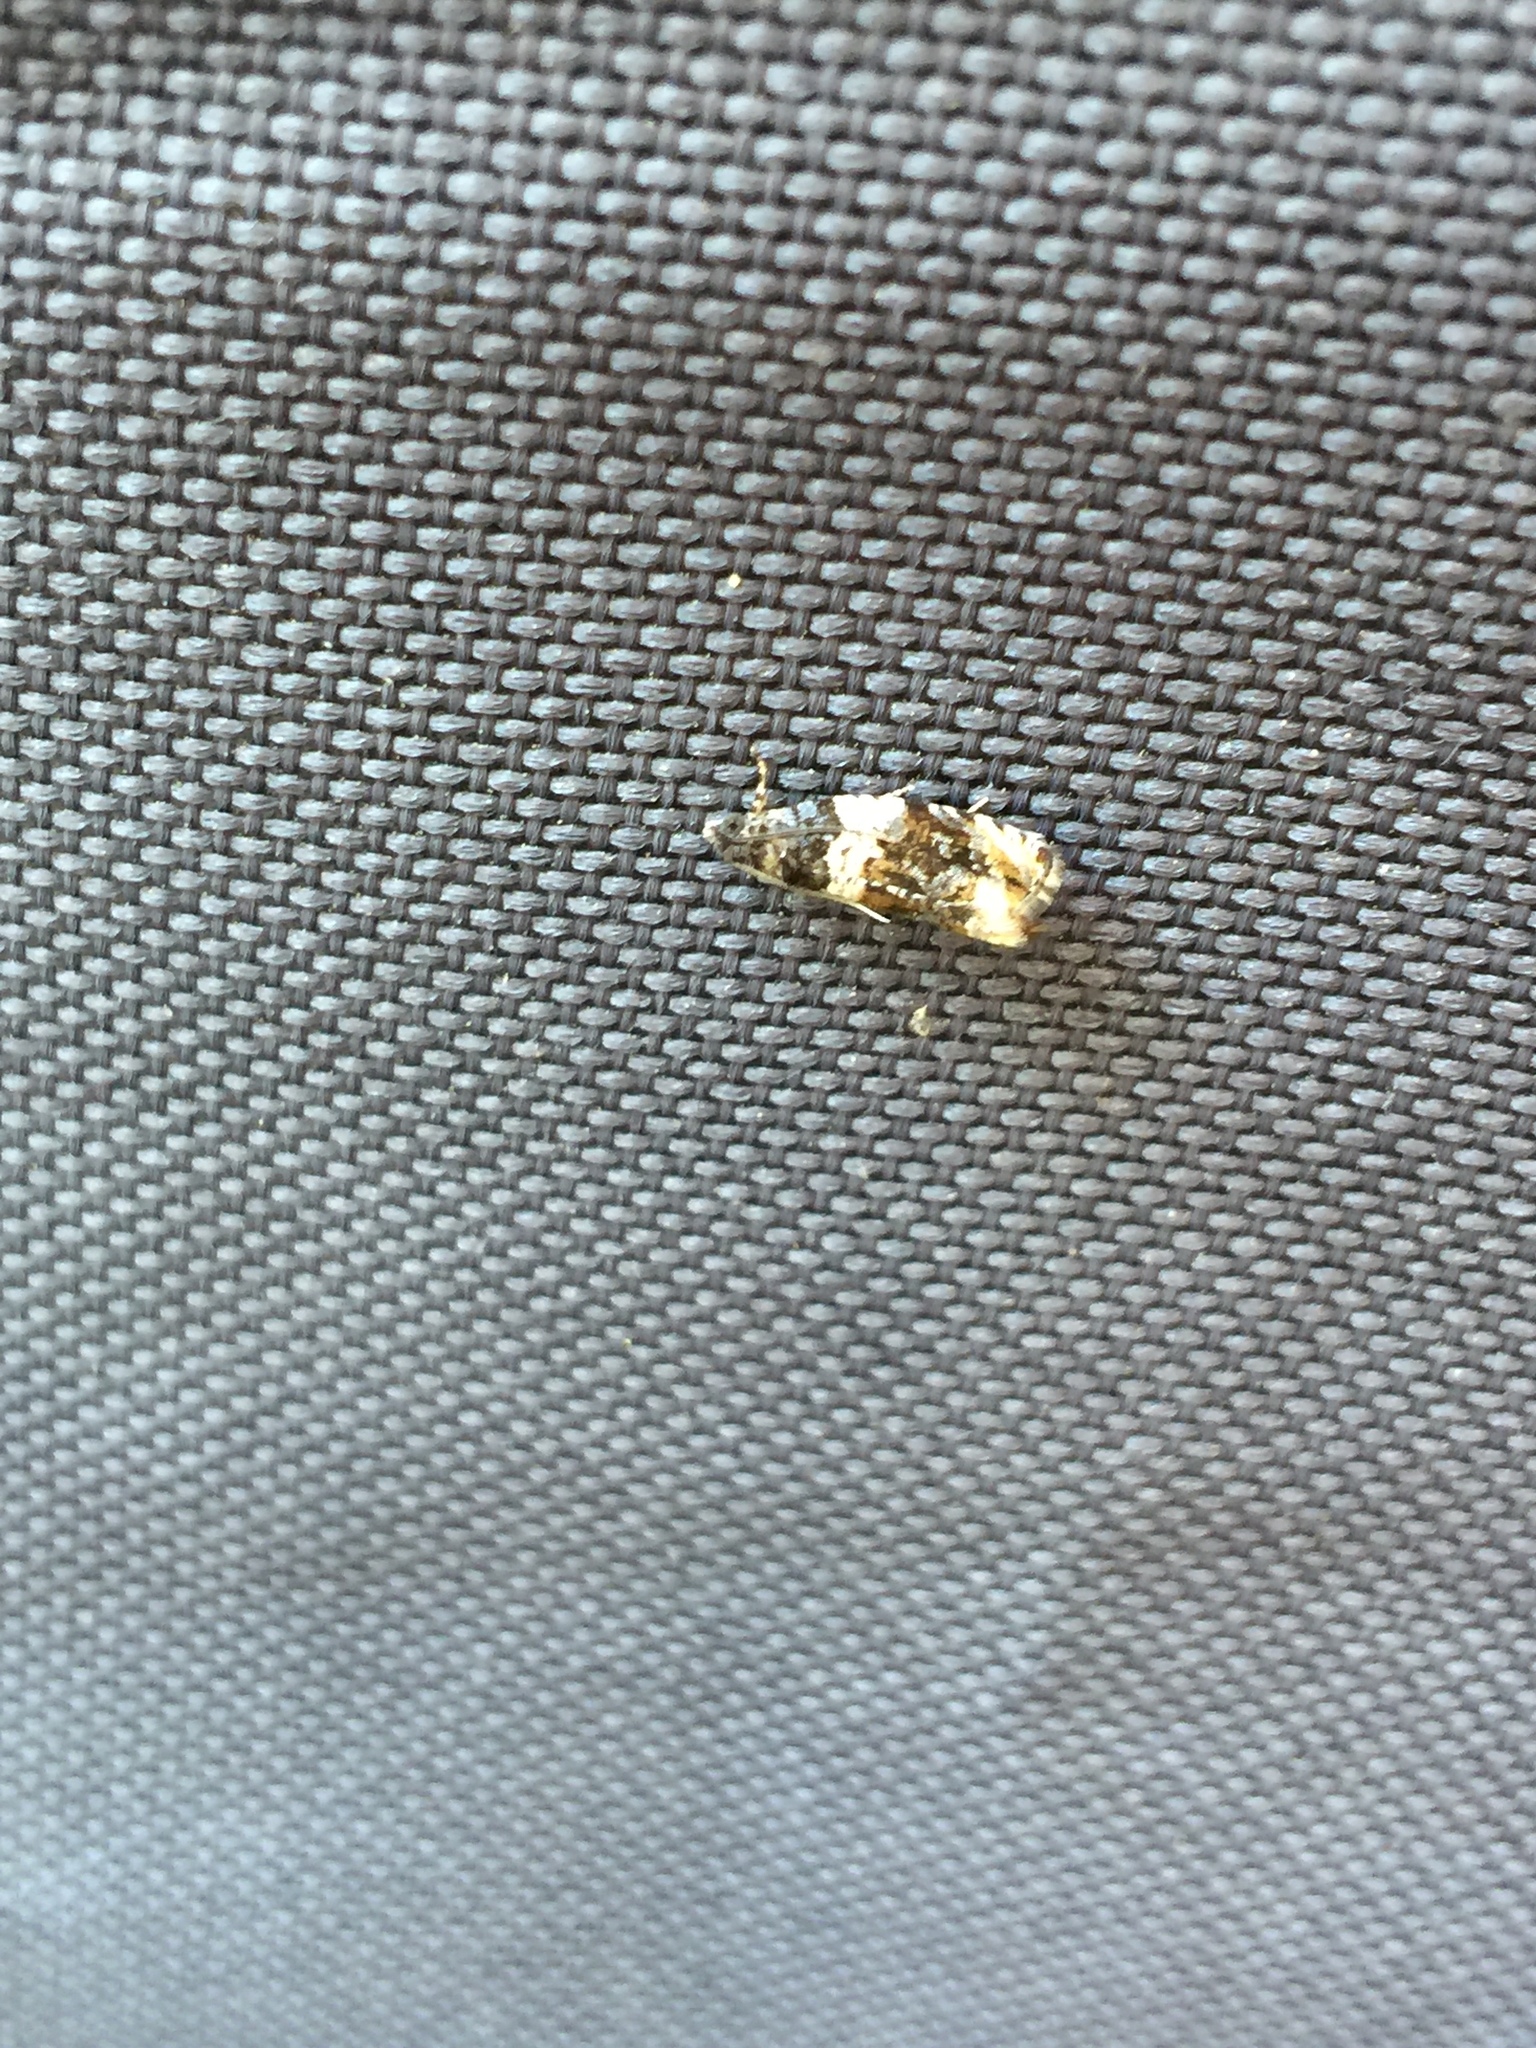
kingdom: Animalia
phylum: Arthropoda
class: Insecta
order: Lepidoptera
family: Tortricidae
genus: Olethreutes
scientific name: Olethreutes fasciatana
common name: Banded olethreutes moth
